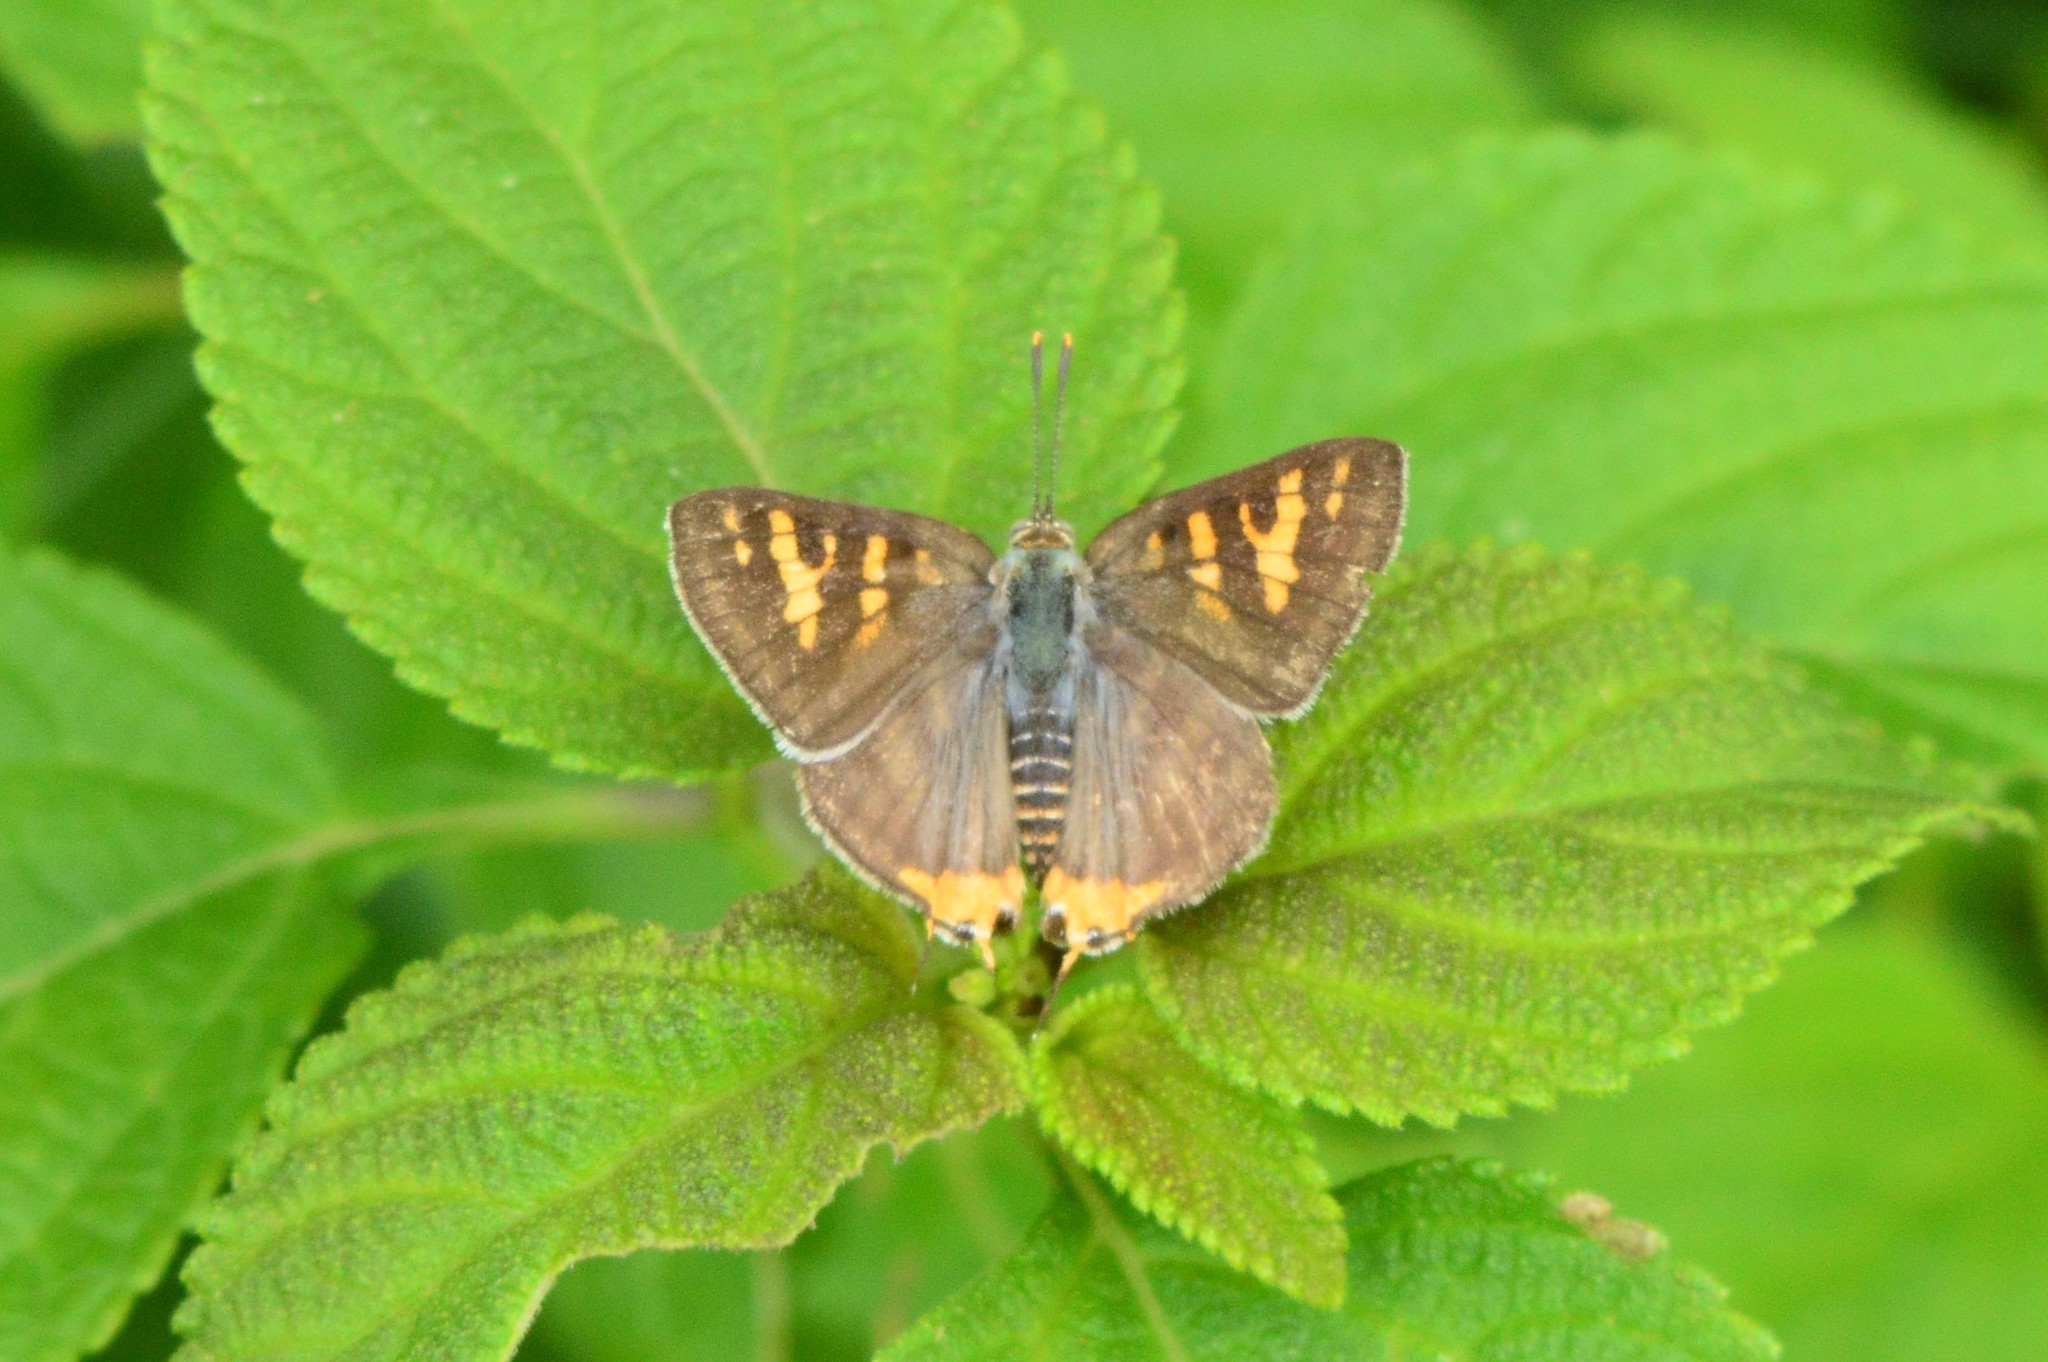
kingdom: Animalia
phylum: Arthropoda
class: Insecta
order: Lepidoptera
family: Lycaenidae
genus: Cigaritis
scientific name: Cigaritis vulcanus
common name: Common silverline
